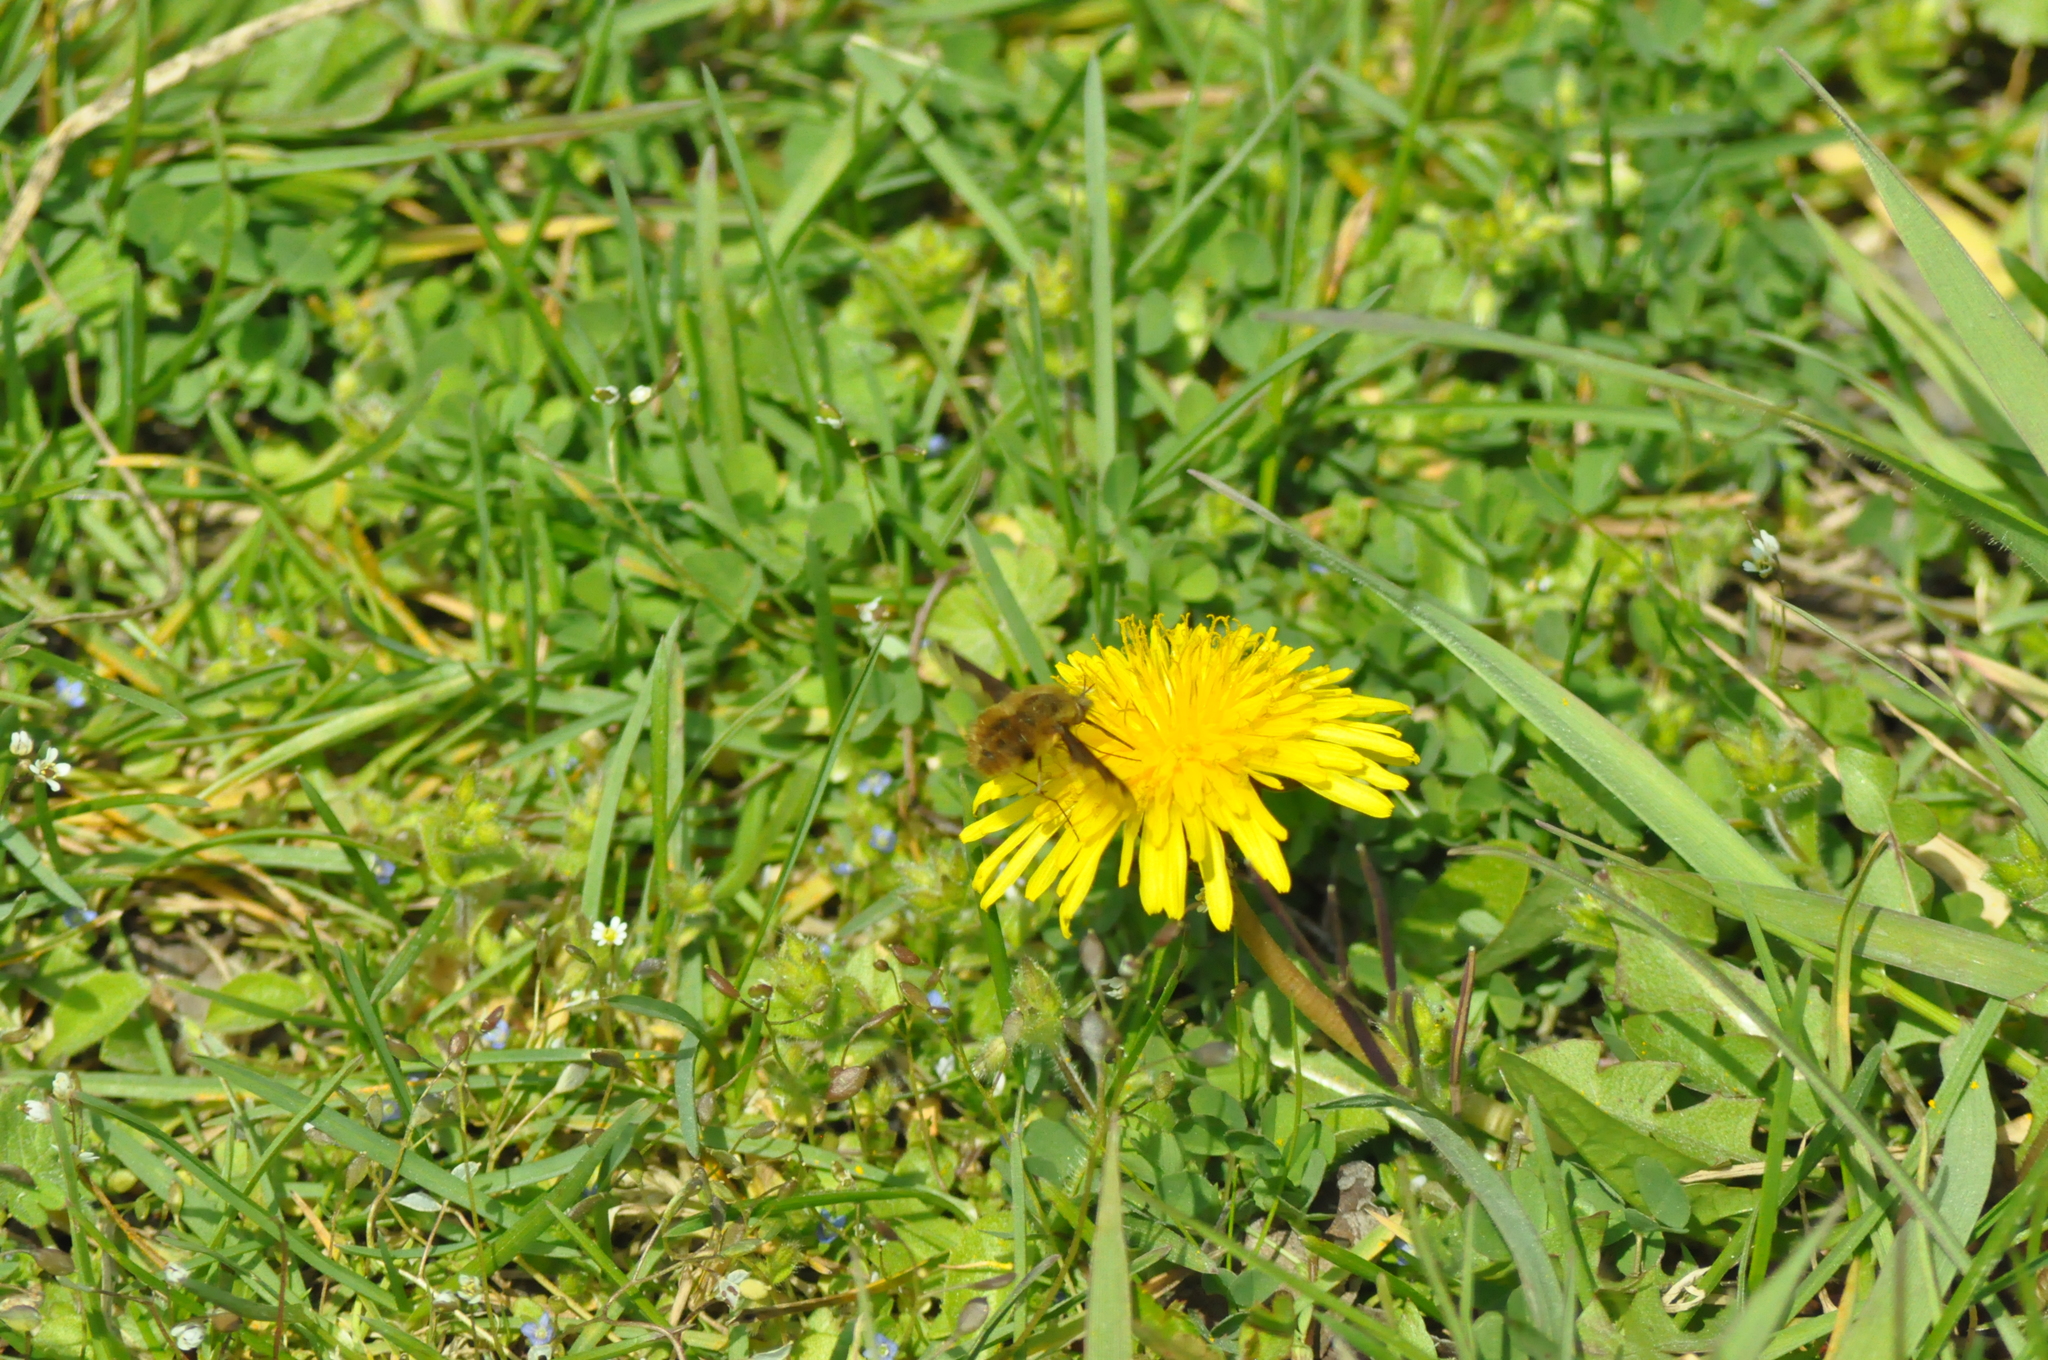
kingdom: Animalia
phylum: Arthropoda
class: Insecta
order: Diptera
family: Bombyliidae
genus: Bombylius
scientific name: Bombylius major
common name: Bee fly
